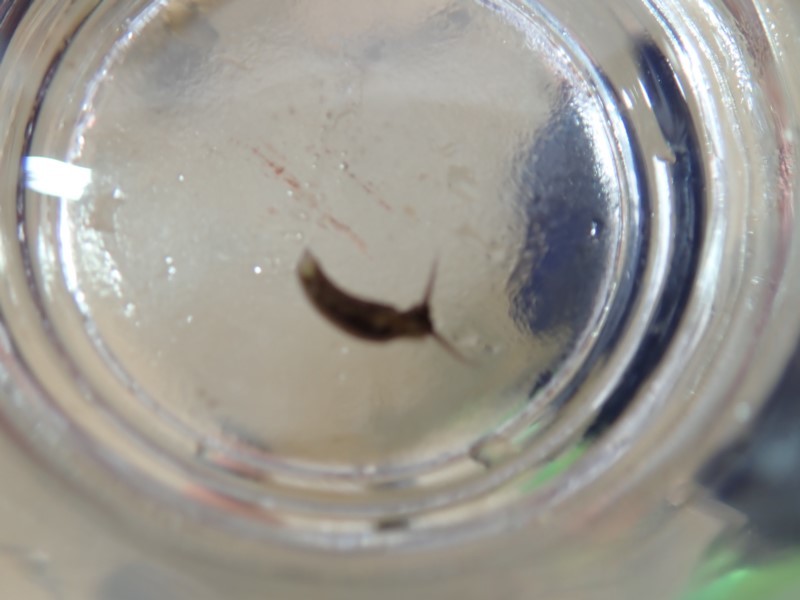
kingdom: Animalia
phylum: Mollusca
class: Gastropoda
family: Plakobranchidae
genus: Elysia
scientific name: Elysia australis
